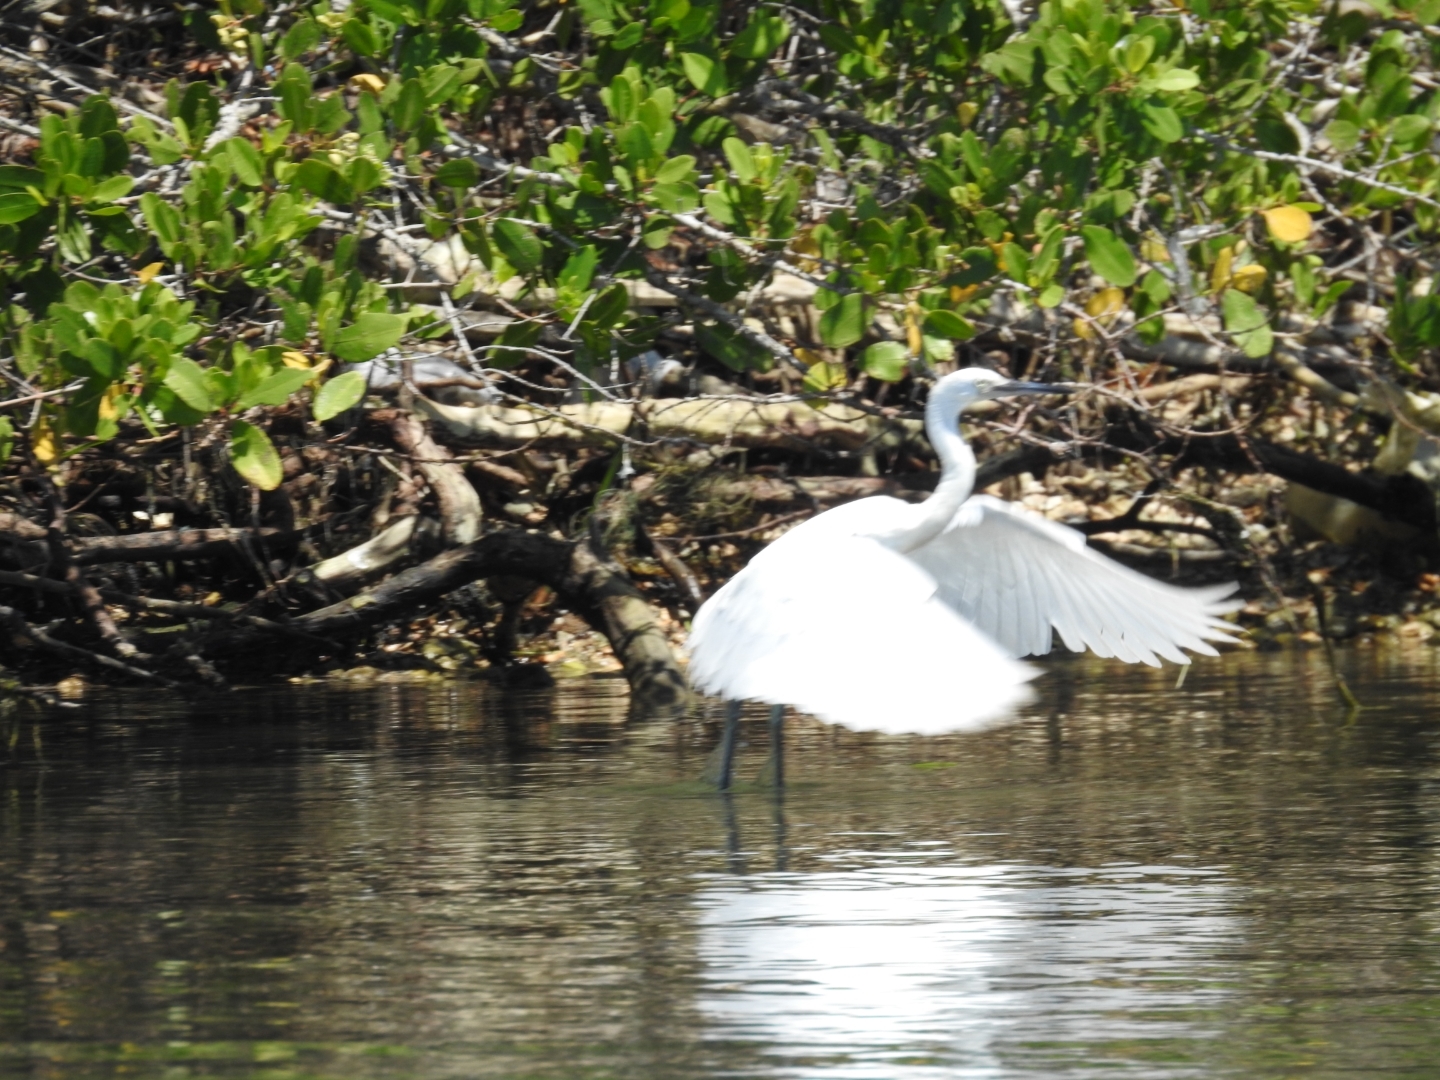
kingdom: Animalia
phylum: Chordata
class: Aves
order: Pelecaniformes
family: Ardeidae
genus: Egretta
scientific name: Egretta thula
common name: Snowy egret
